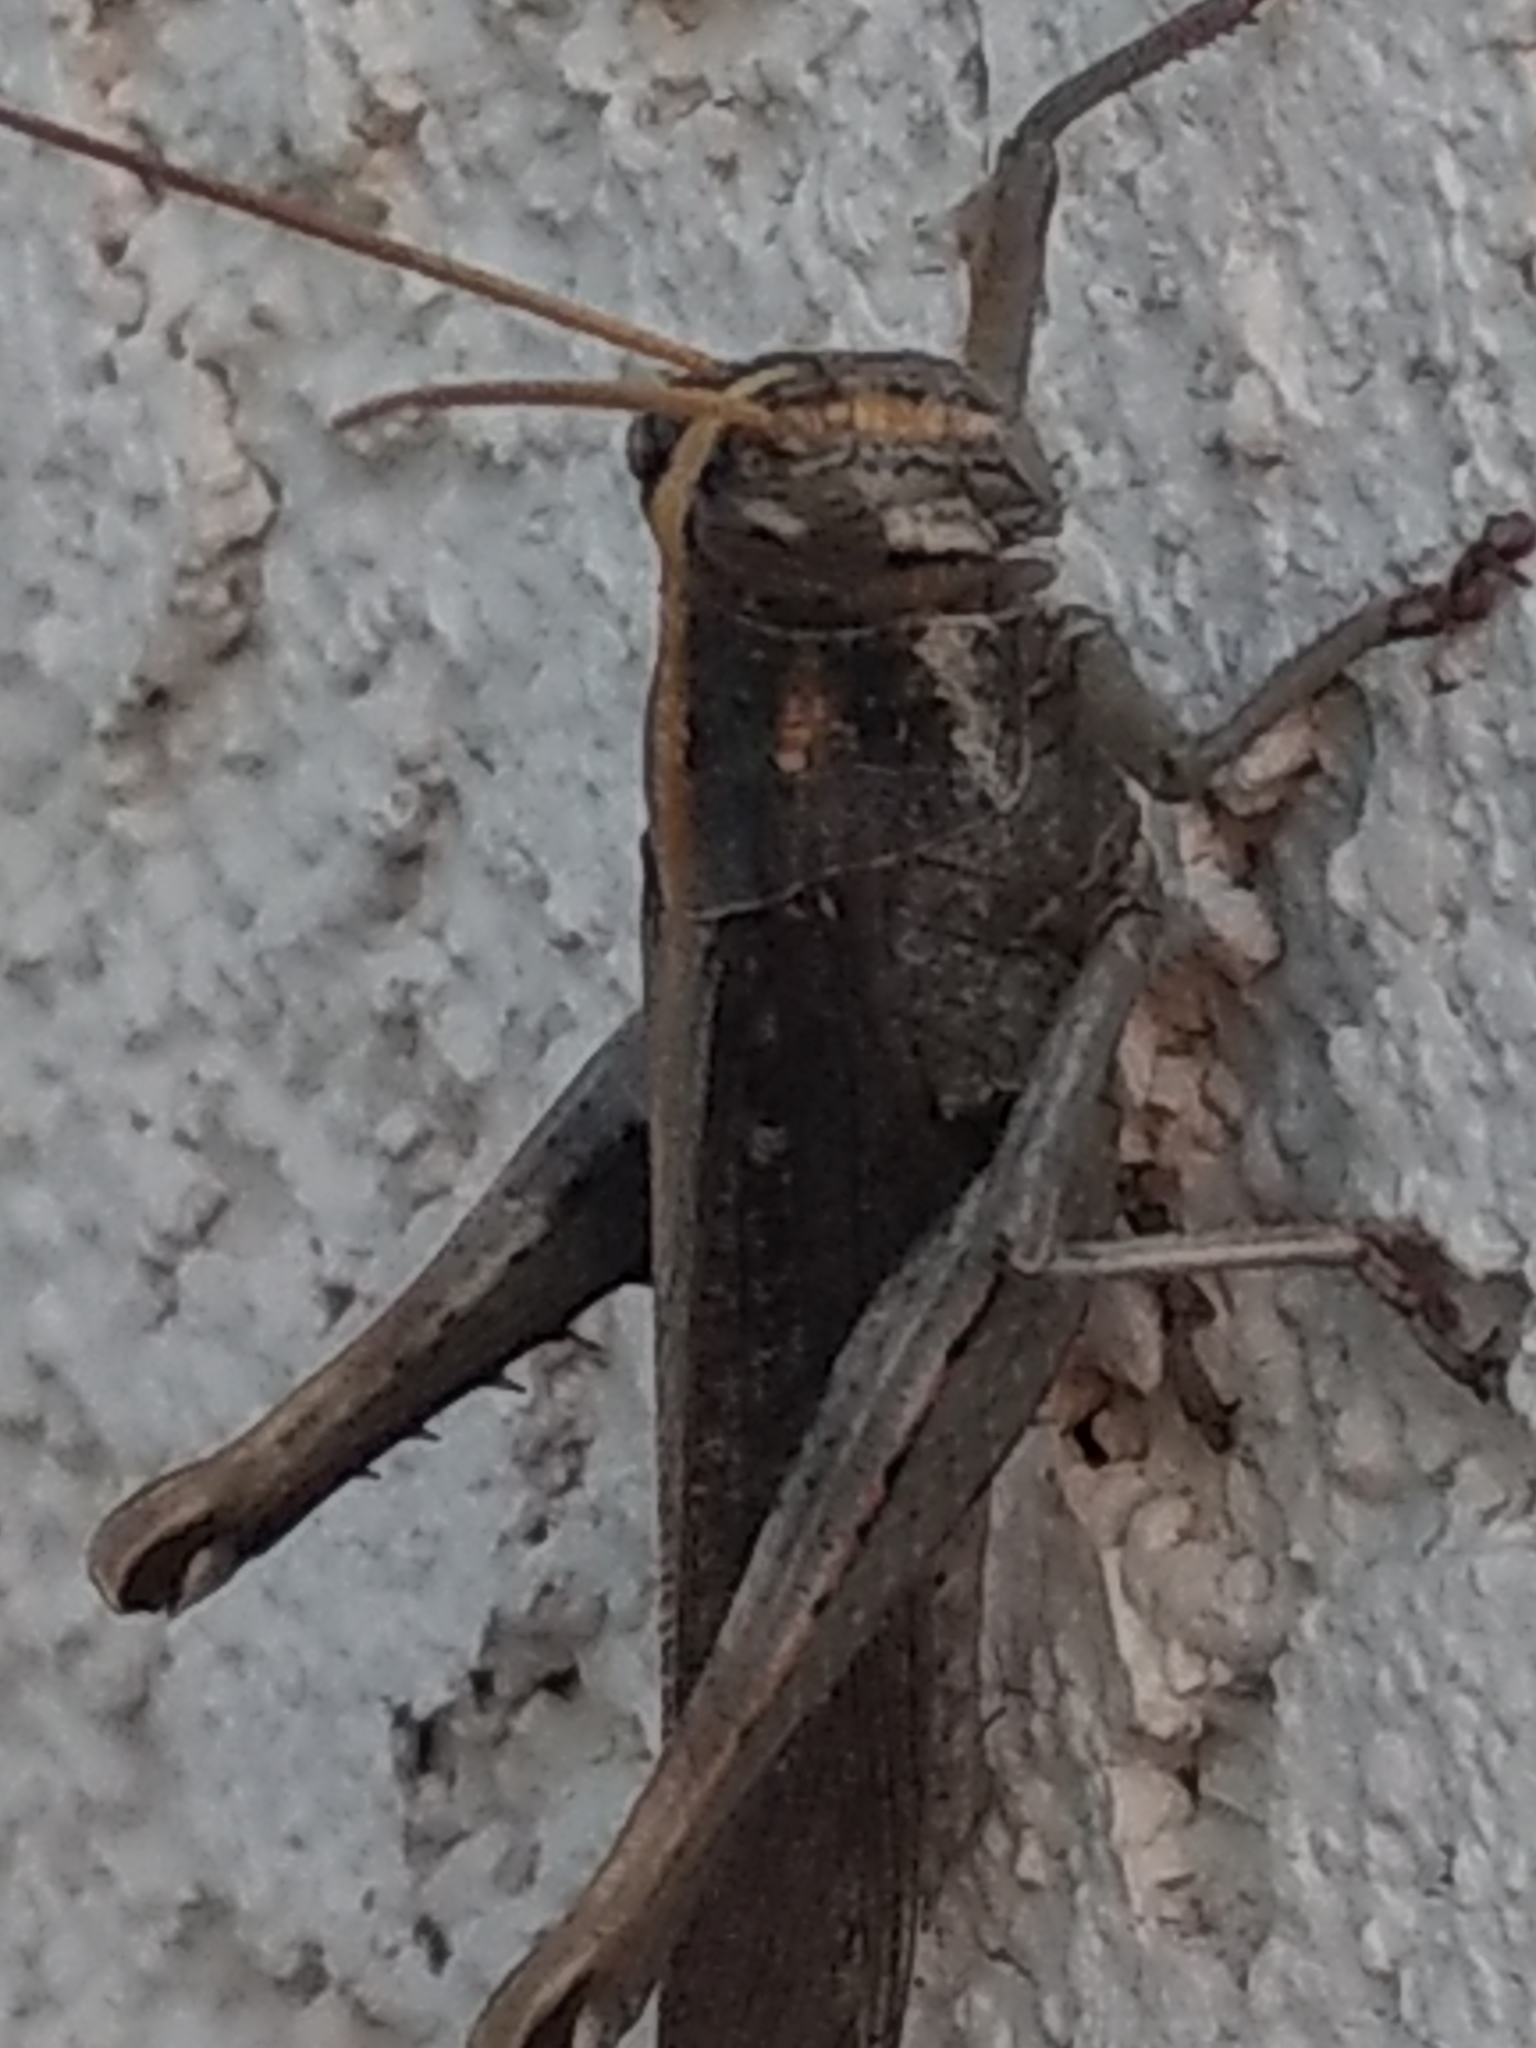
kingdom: Animalia
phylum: Arthropoda
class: Insecta
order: Orthoptera
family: Acrididae
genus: Schistocerca
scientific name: Schistocerca nitens
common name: Vagrant grasshopper
